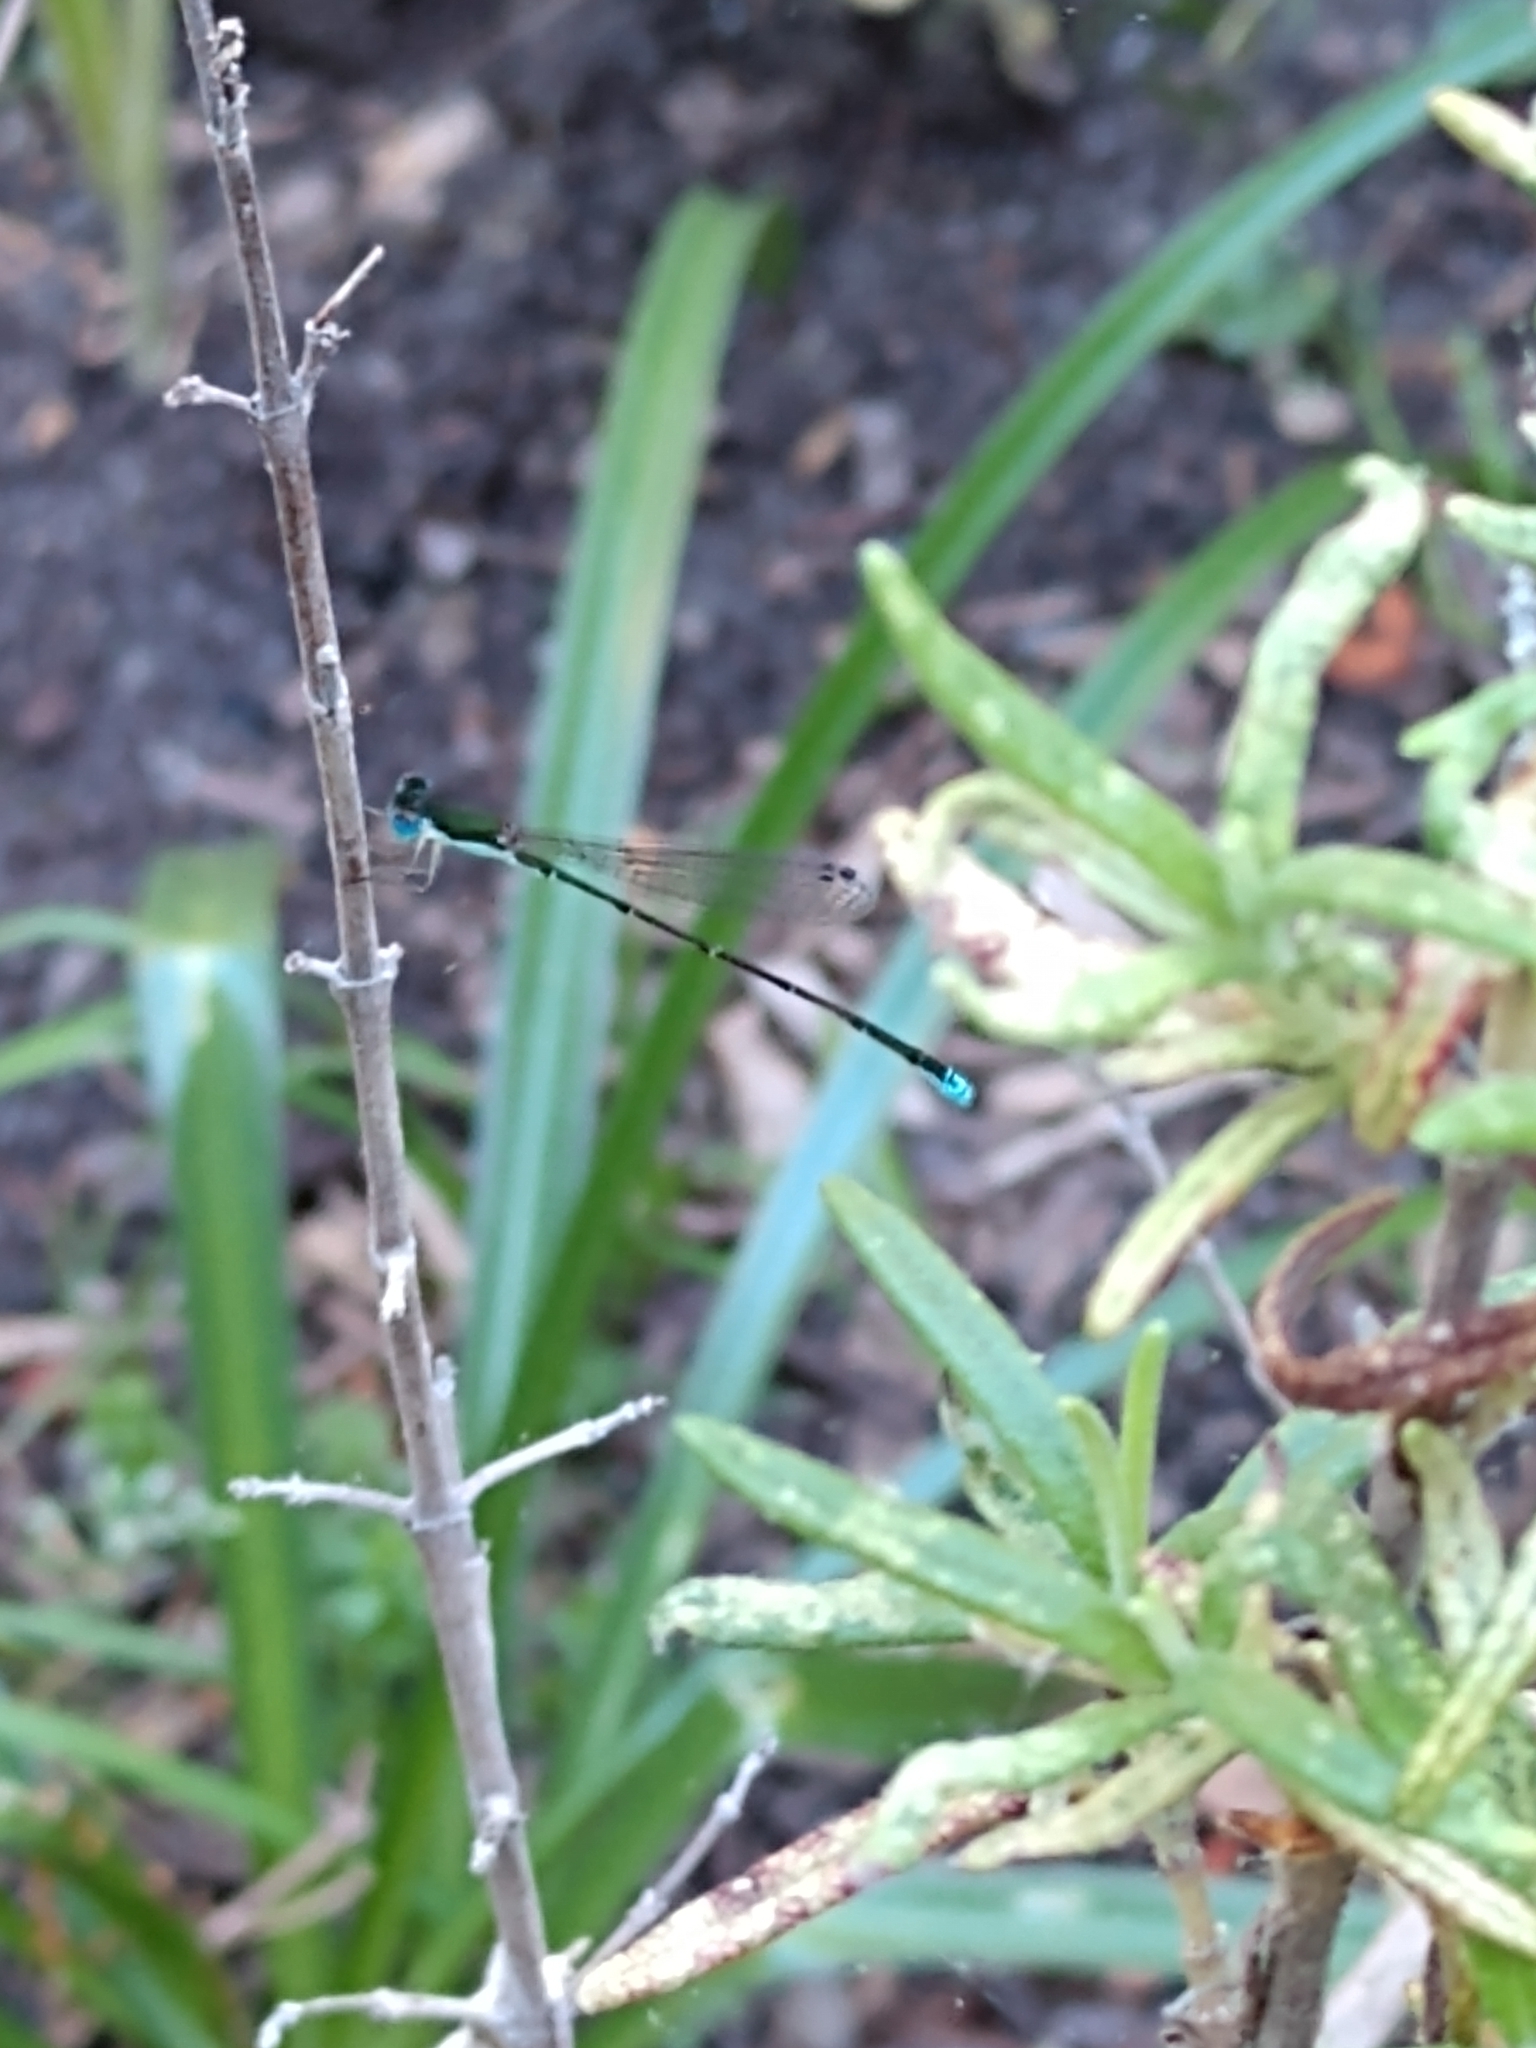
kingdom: Animalia
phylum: Arthropoda
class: Insecta
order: Odonata
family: Coenagrionidae
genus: Nehalennia
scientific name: Nehalennia integricollis
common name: Southern sprite
